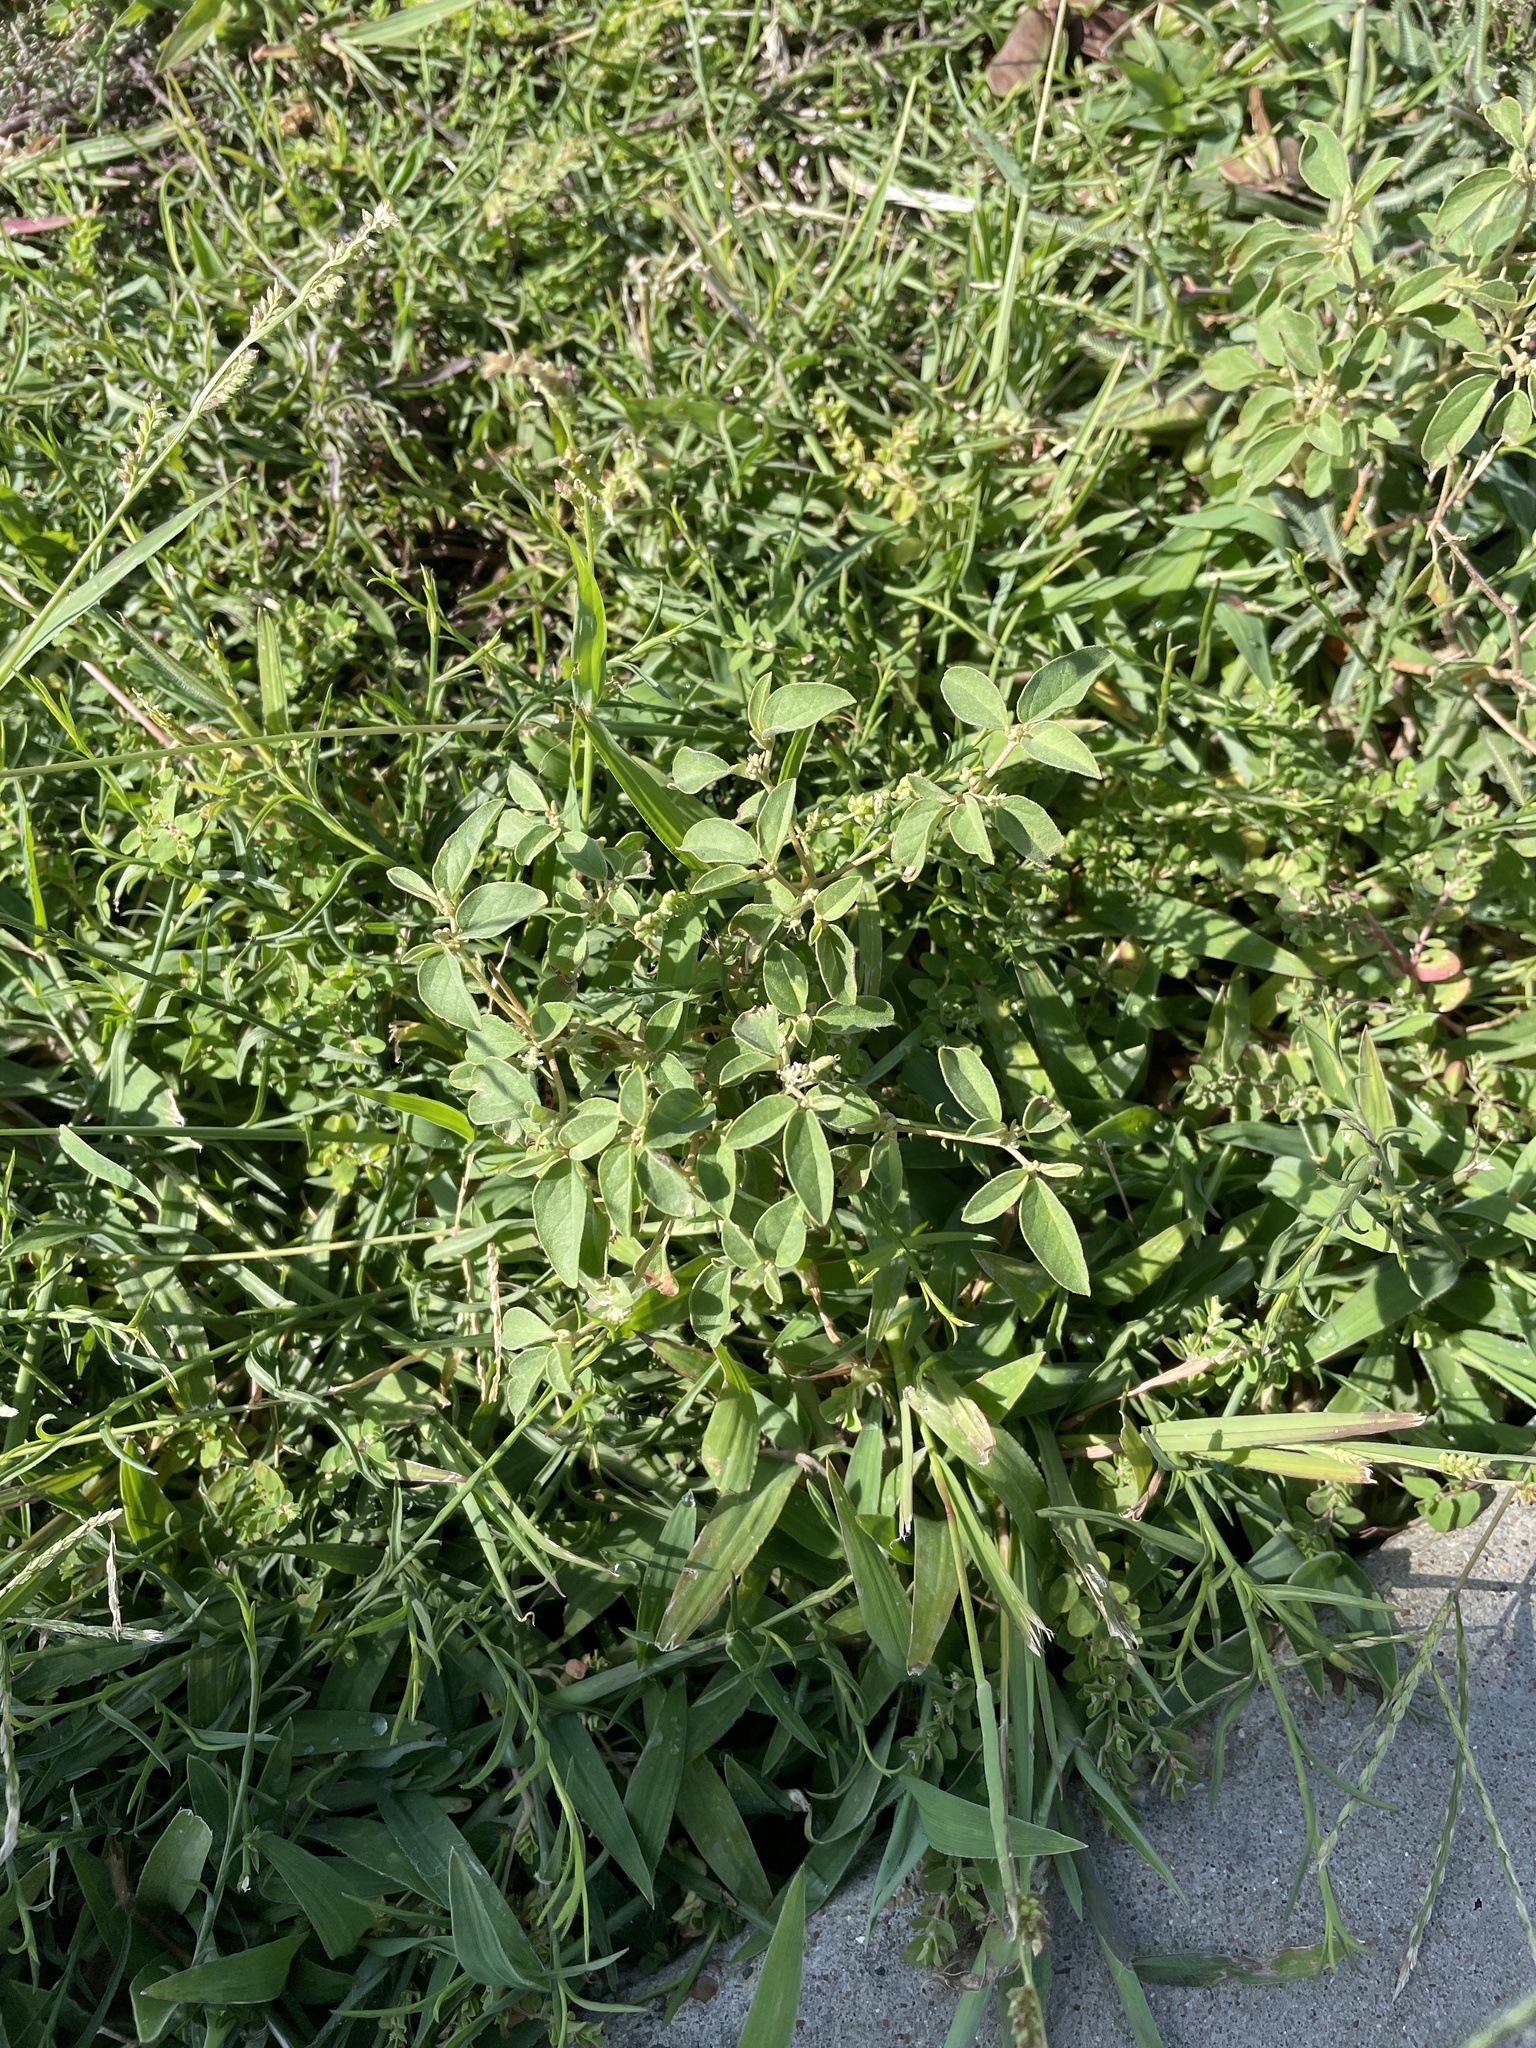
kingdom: Plantae
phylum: Tracheophyta
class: Magnoliopsida
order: Malpighiales
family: Euphorbiaceae
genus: Croton
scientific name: Croton monanthogynus
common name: One-seed croton
